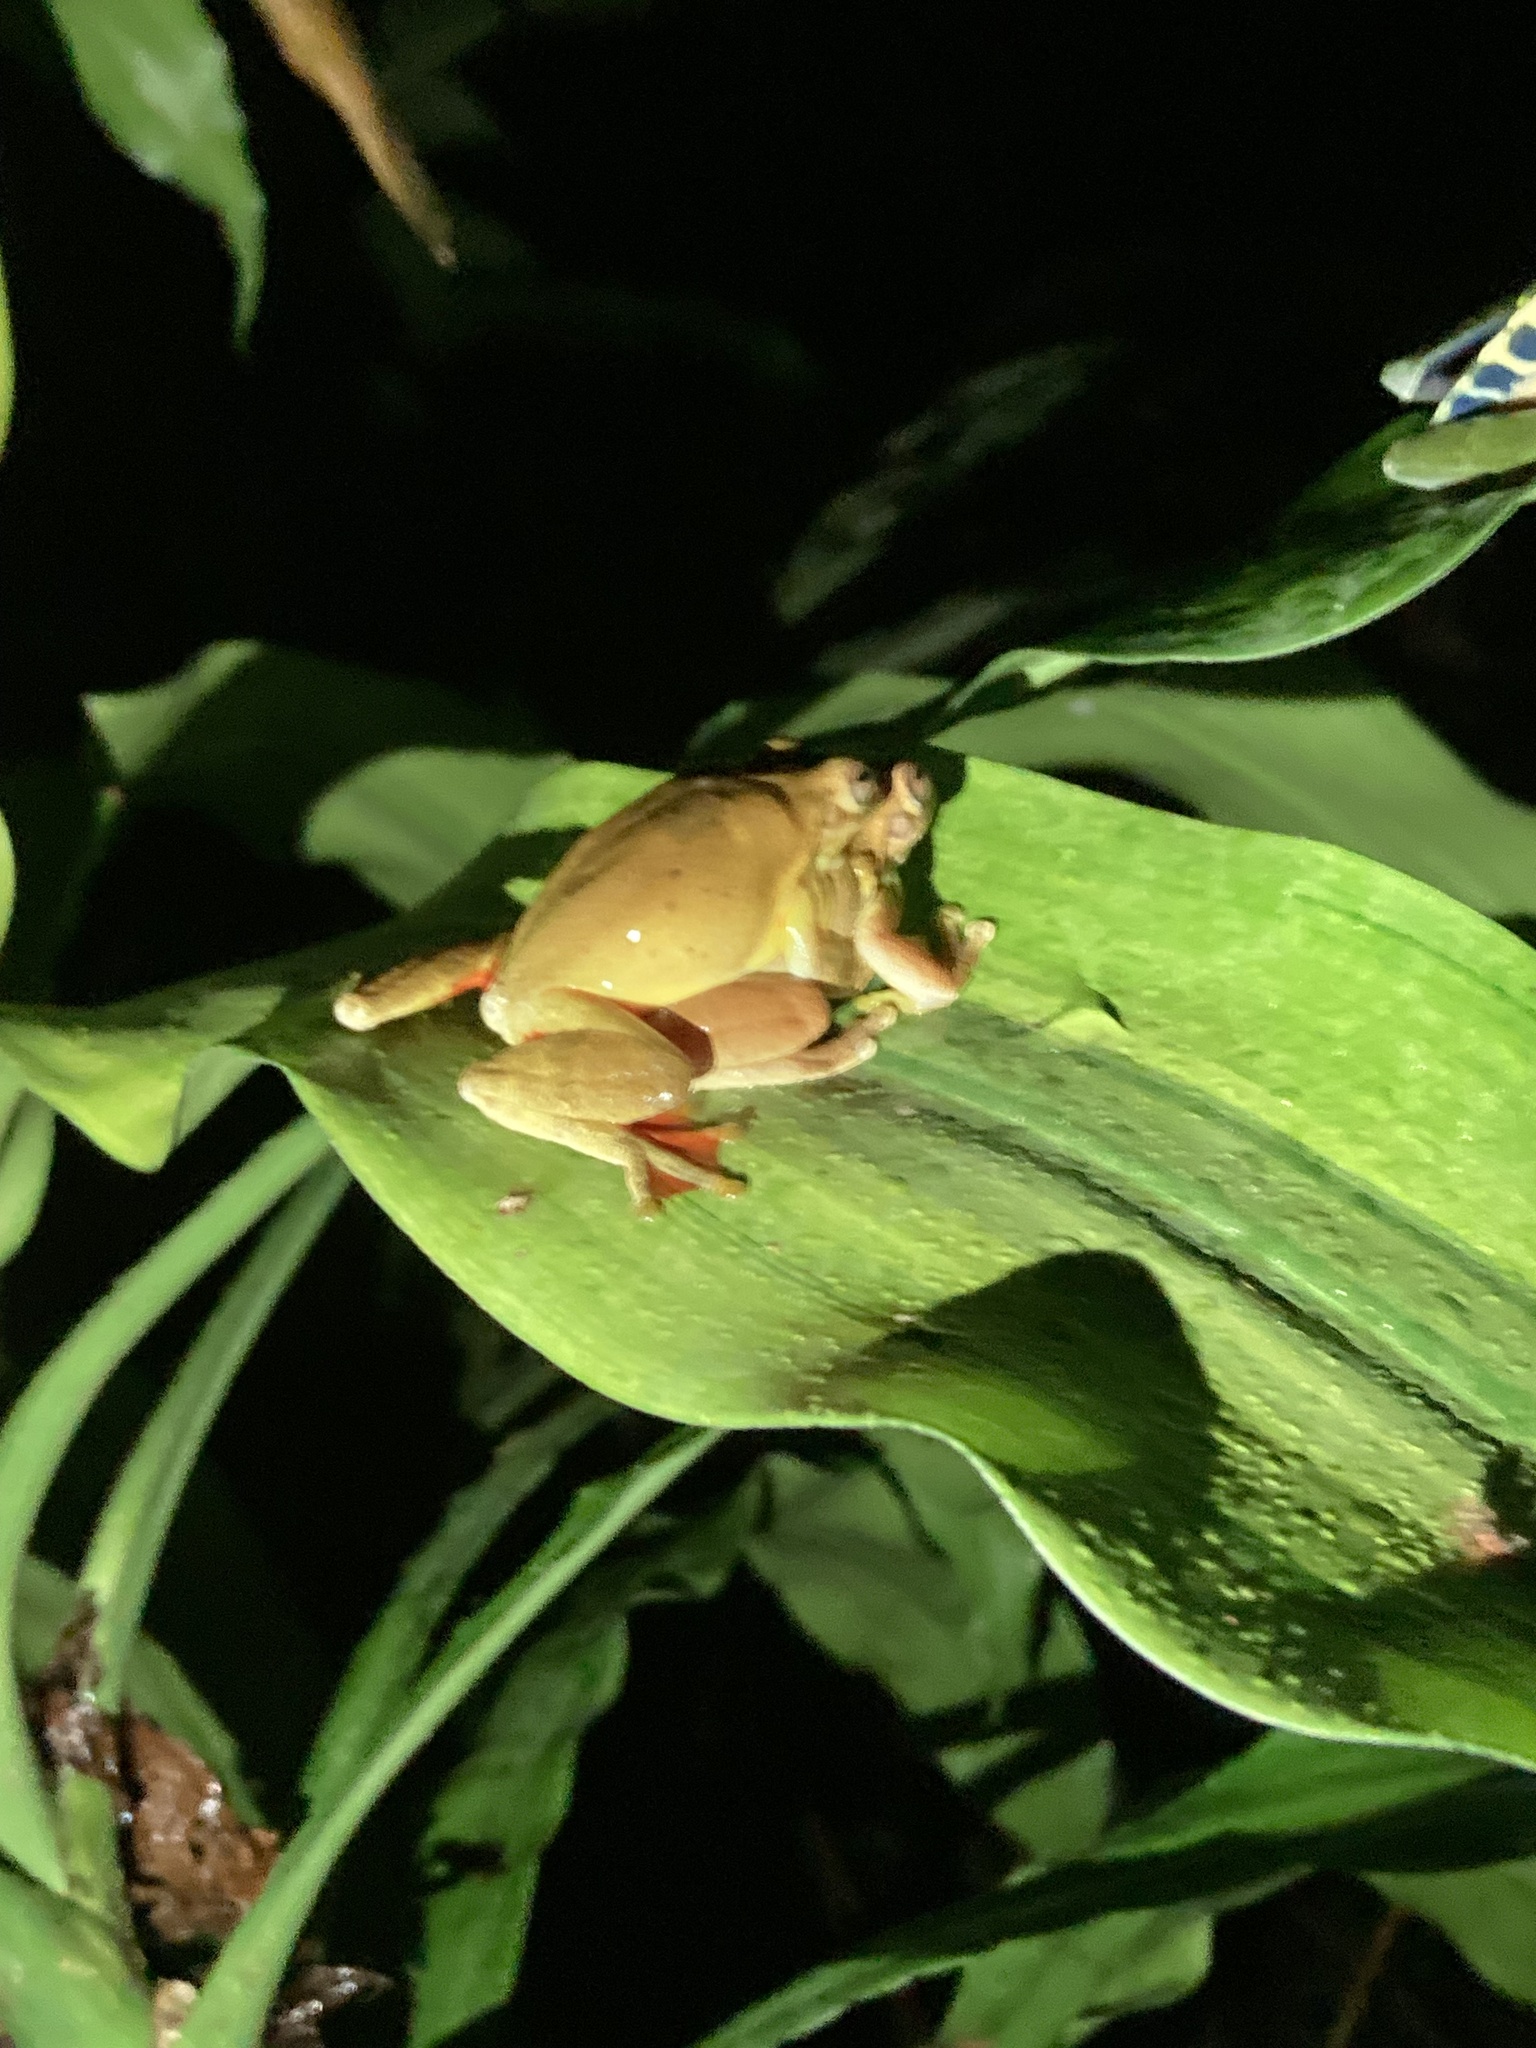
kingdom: Animalia
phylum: Chordata
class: Amphibia
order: Anura
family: Hylidae
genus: Tlalocohyla
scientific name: Tlalocohyla loquax
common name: Loquacious treefrog
